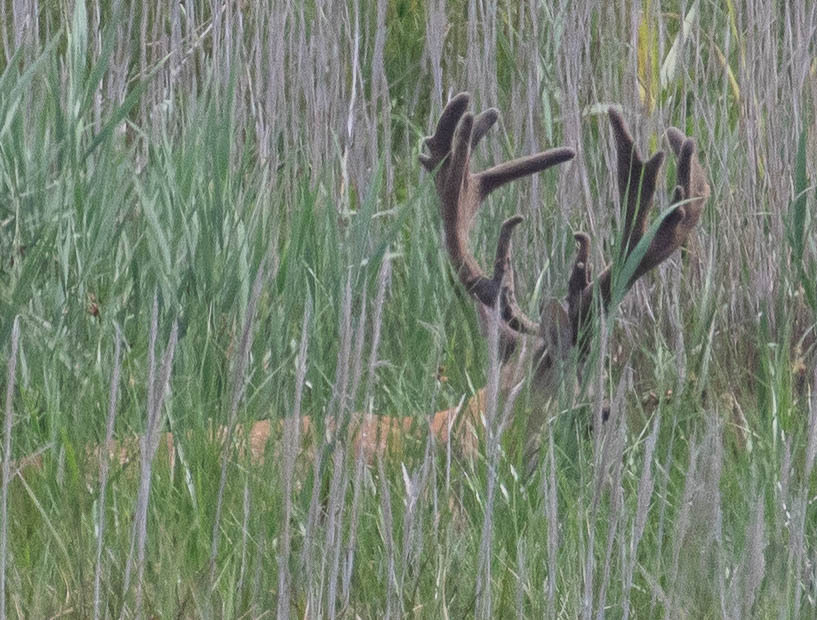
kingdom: Animalia
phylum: Chordata
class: Mammalia
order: Artiodactyla
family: Cervidae
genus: Odocoileus
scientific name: Odocoileus virginianus
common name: White-tailed deer
